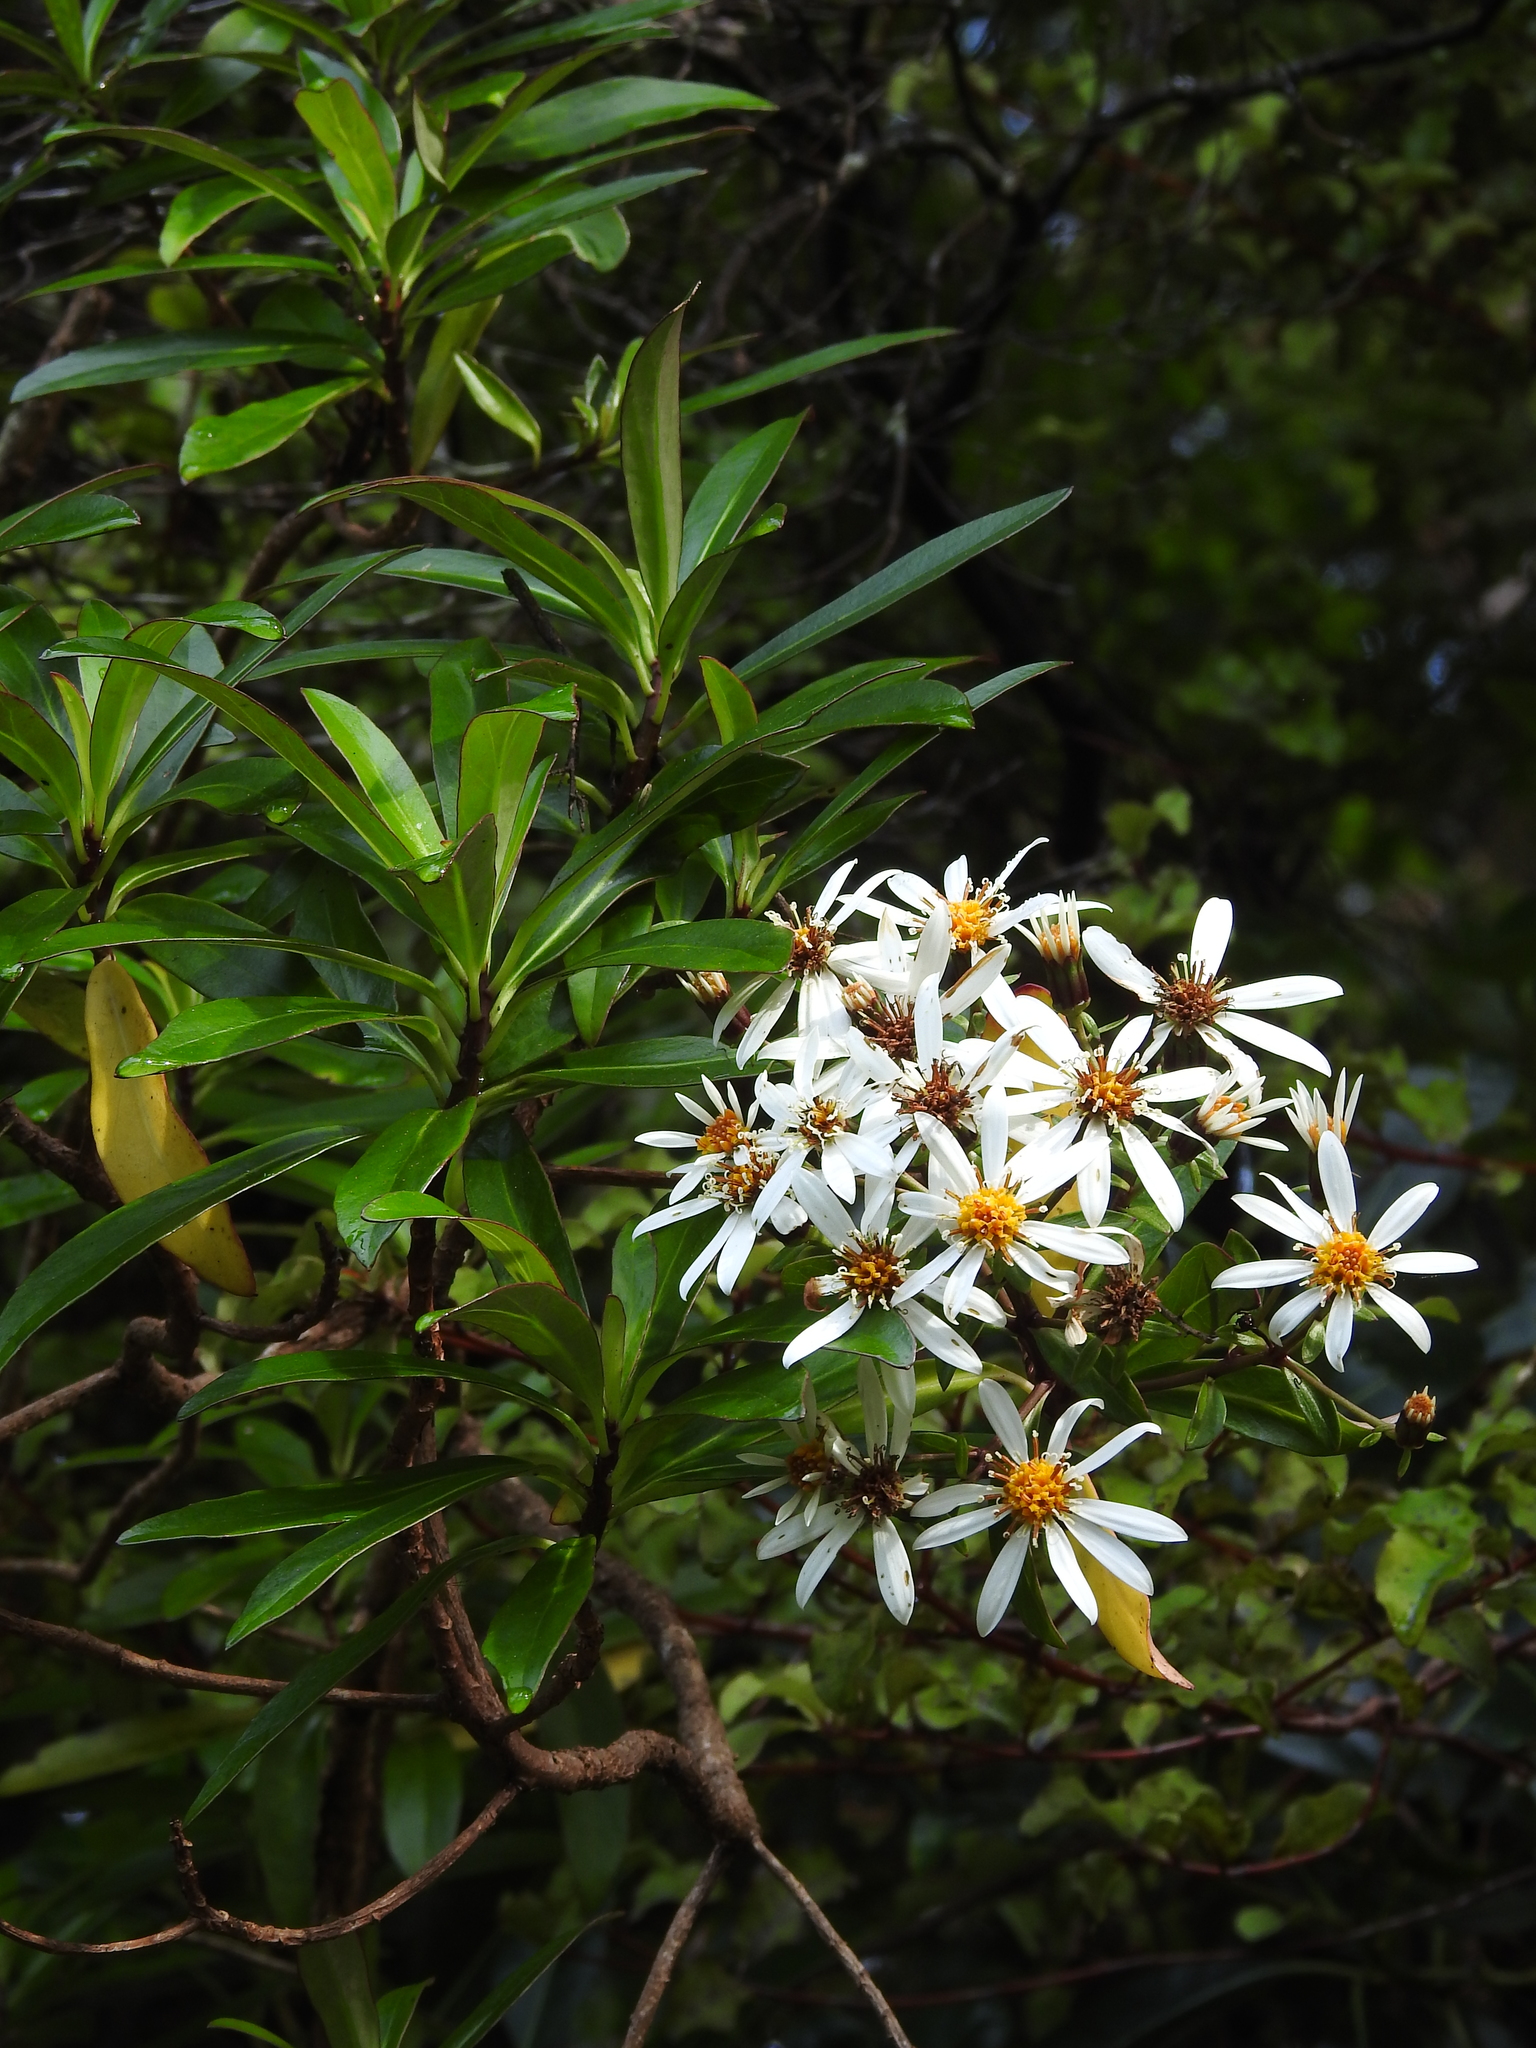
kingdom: Plantae
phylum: Tracheophyta
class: Magnoliopsida
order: Asterales
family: Asteraceae
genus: Brachyglottis
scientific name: Brachyglottis kirkii
